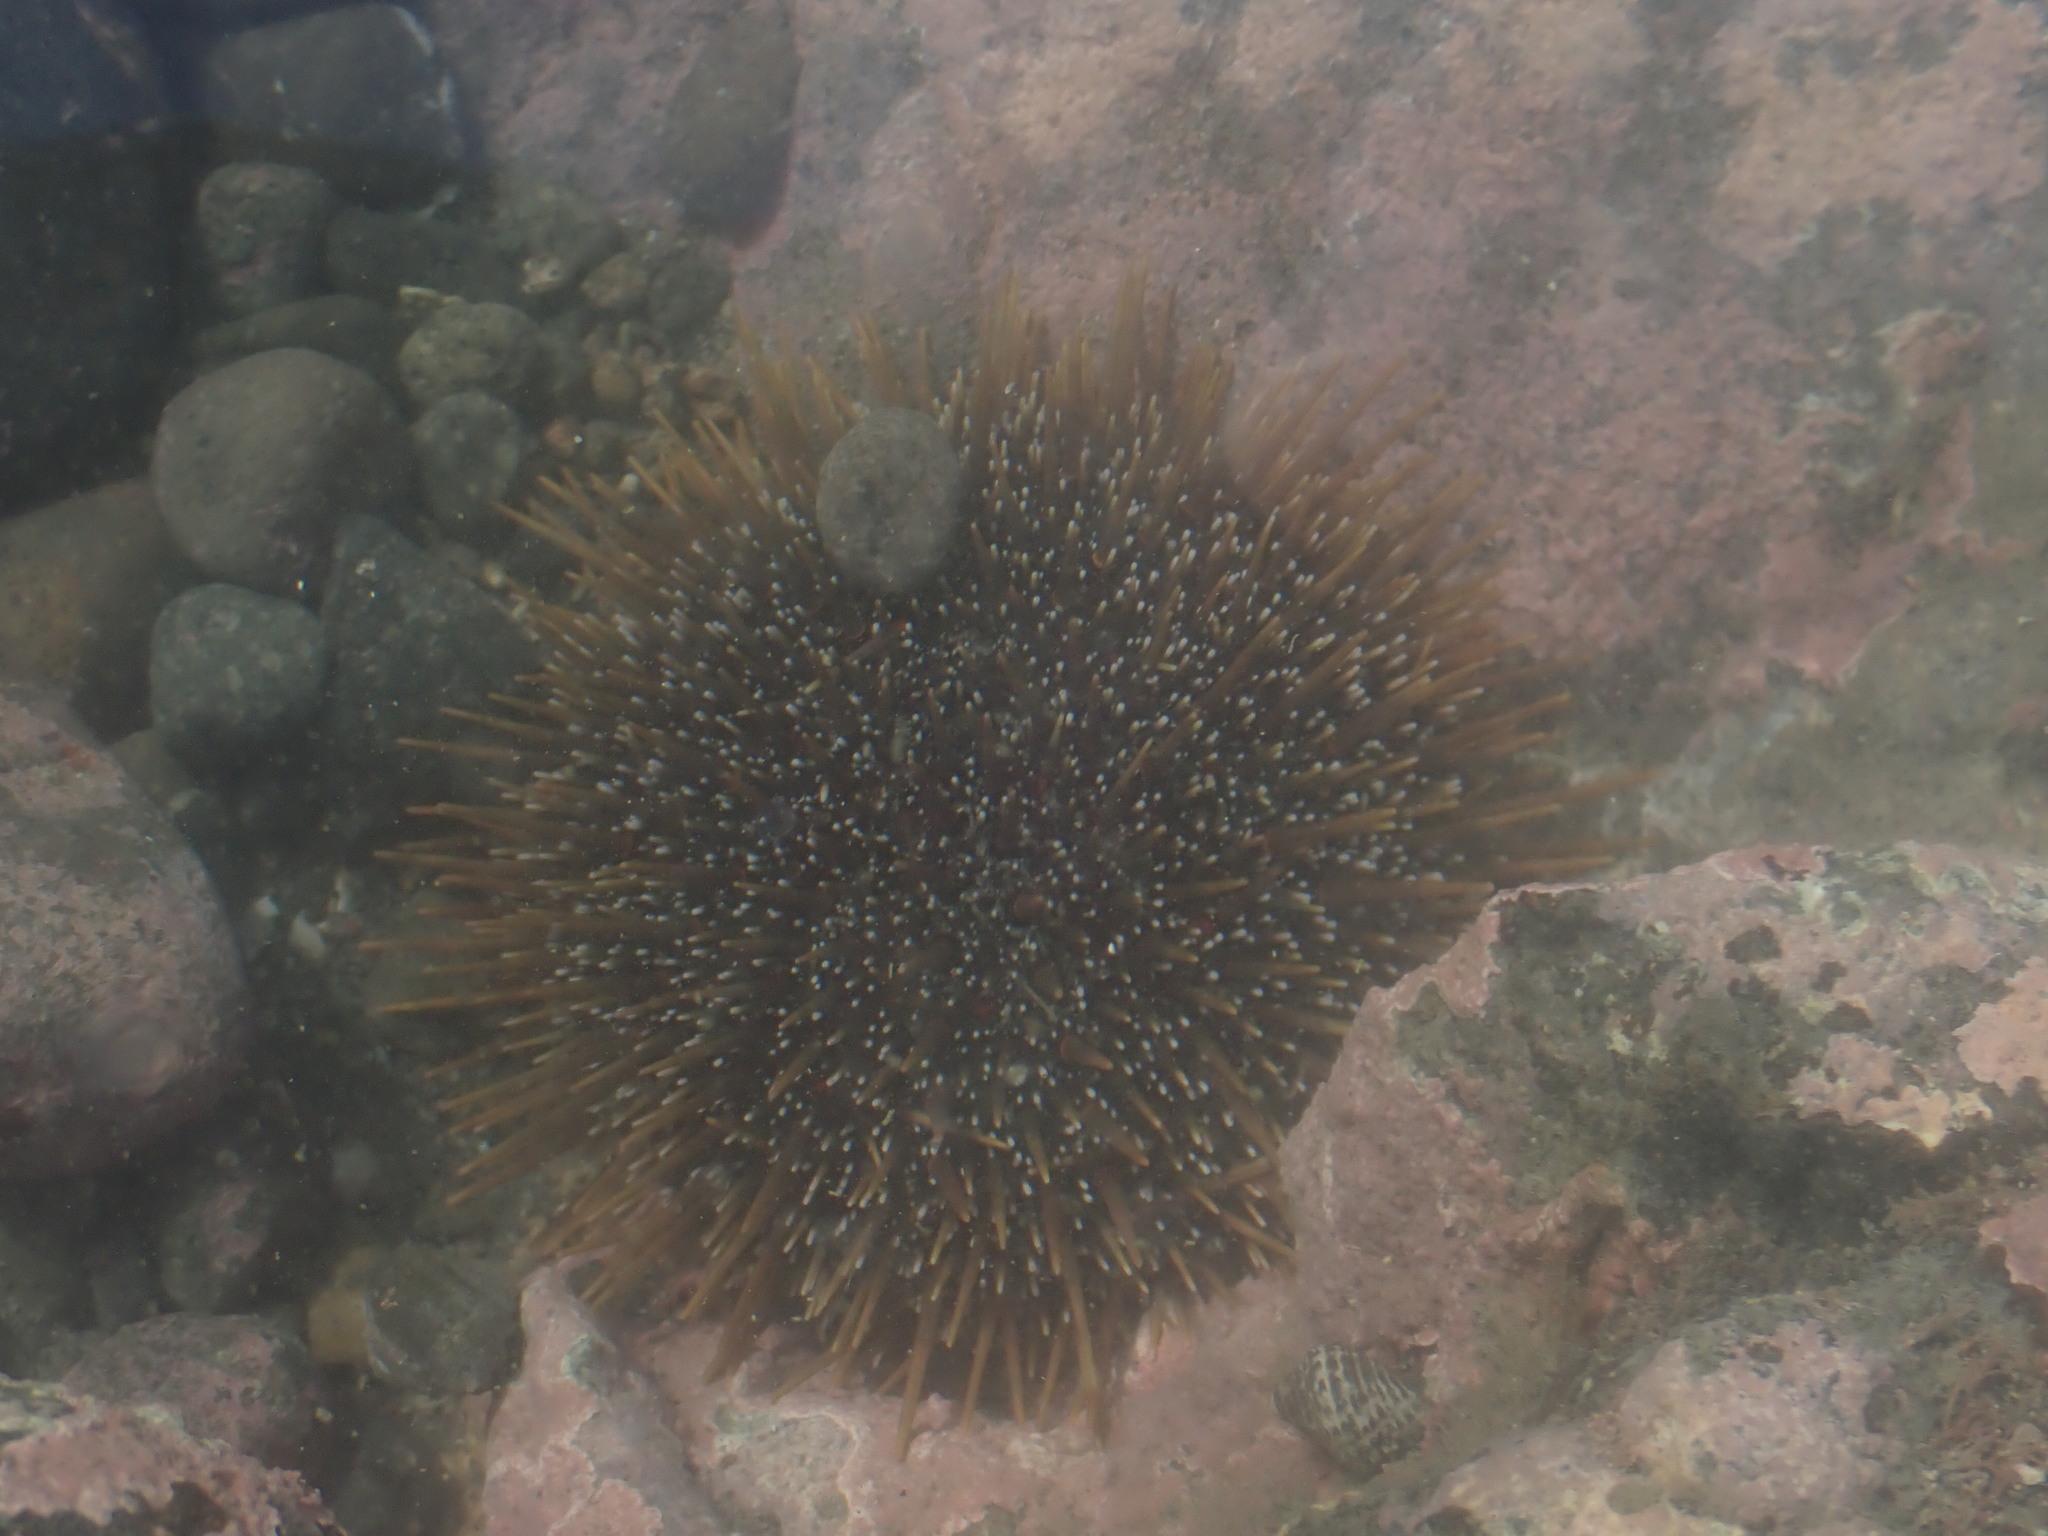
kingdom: Animalia
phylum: Echinodermata
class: Echinoidea
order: Camarodonta
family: Echinometridae
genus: Evechinus
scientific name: Evechinus chloroticus
